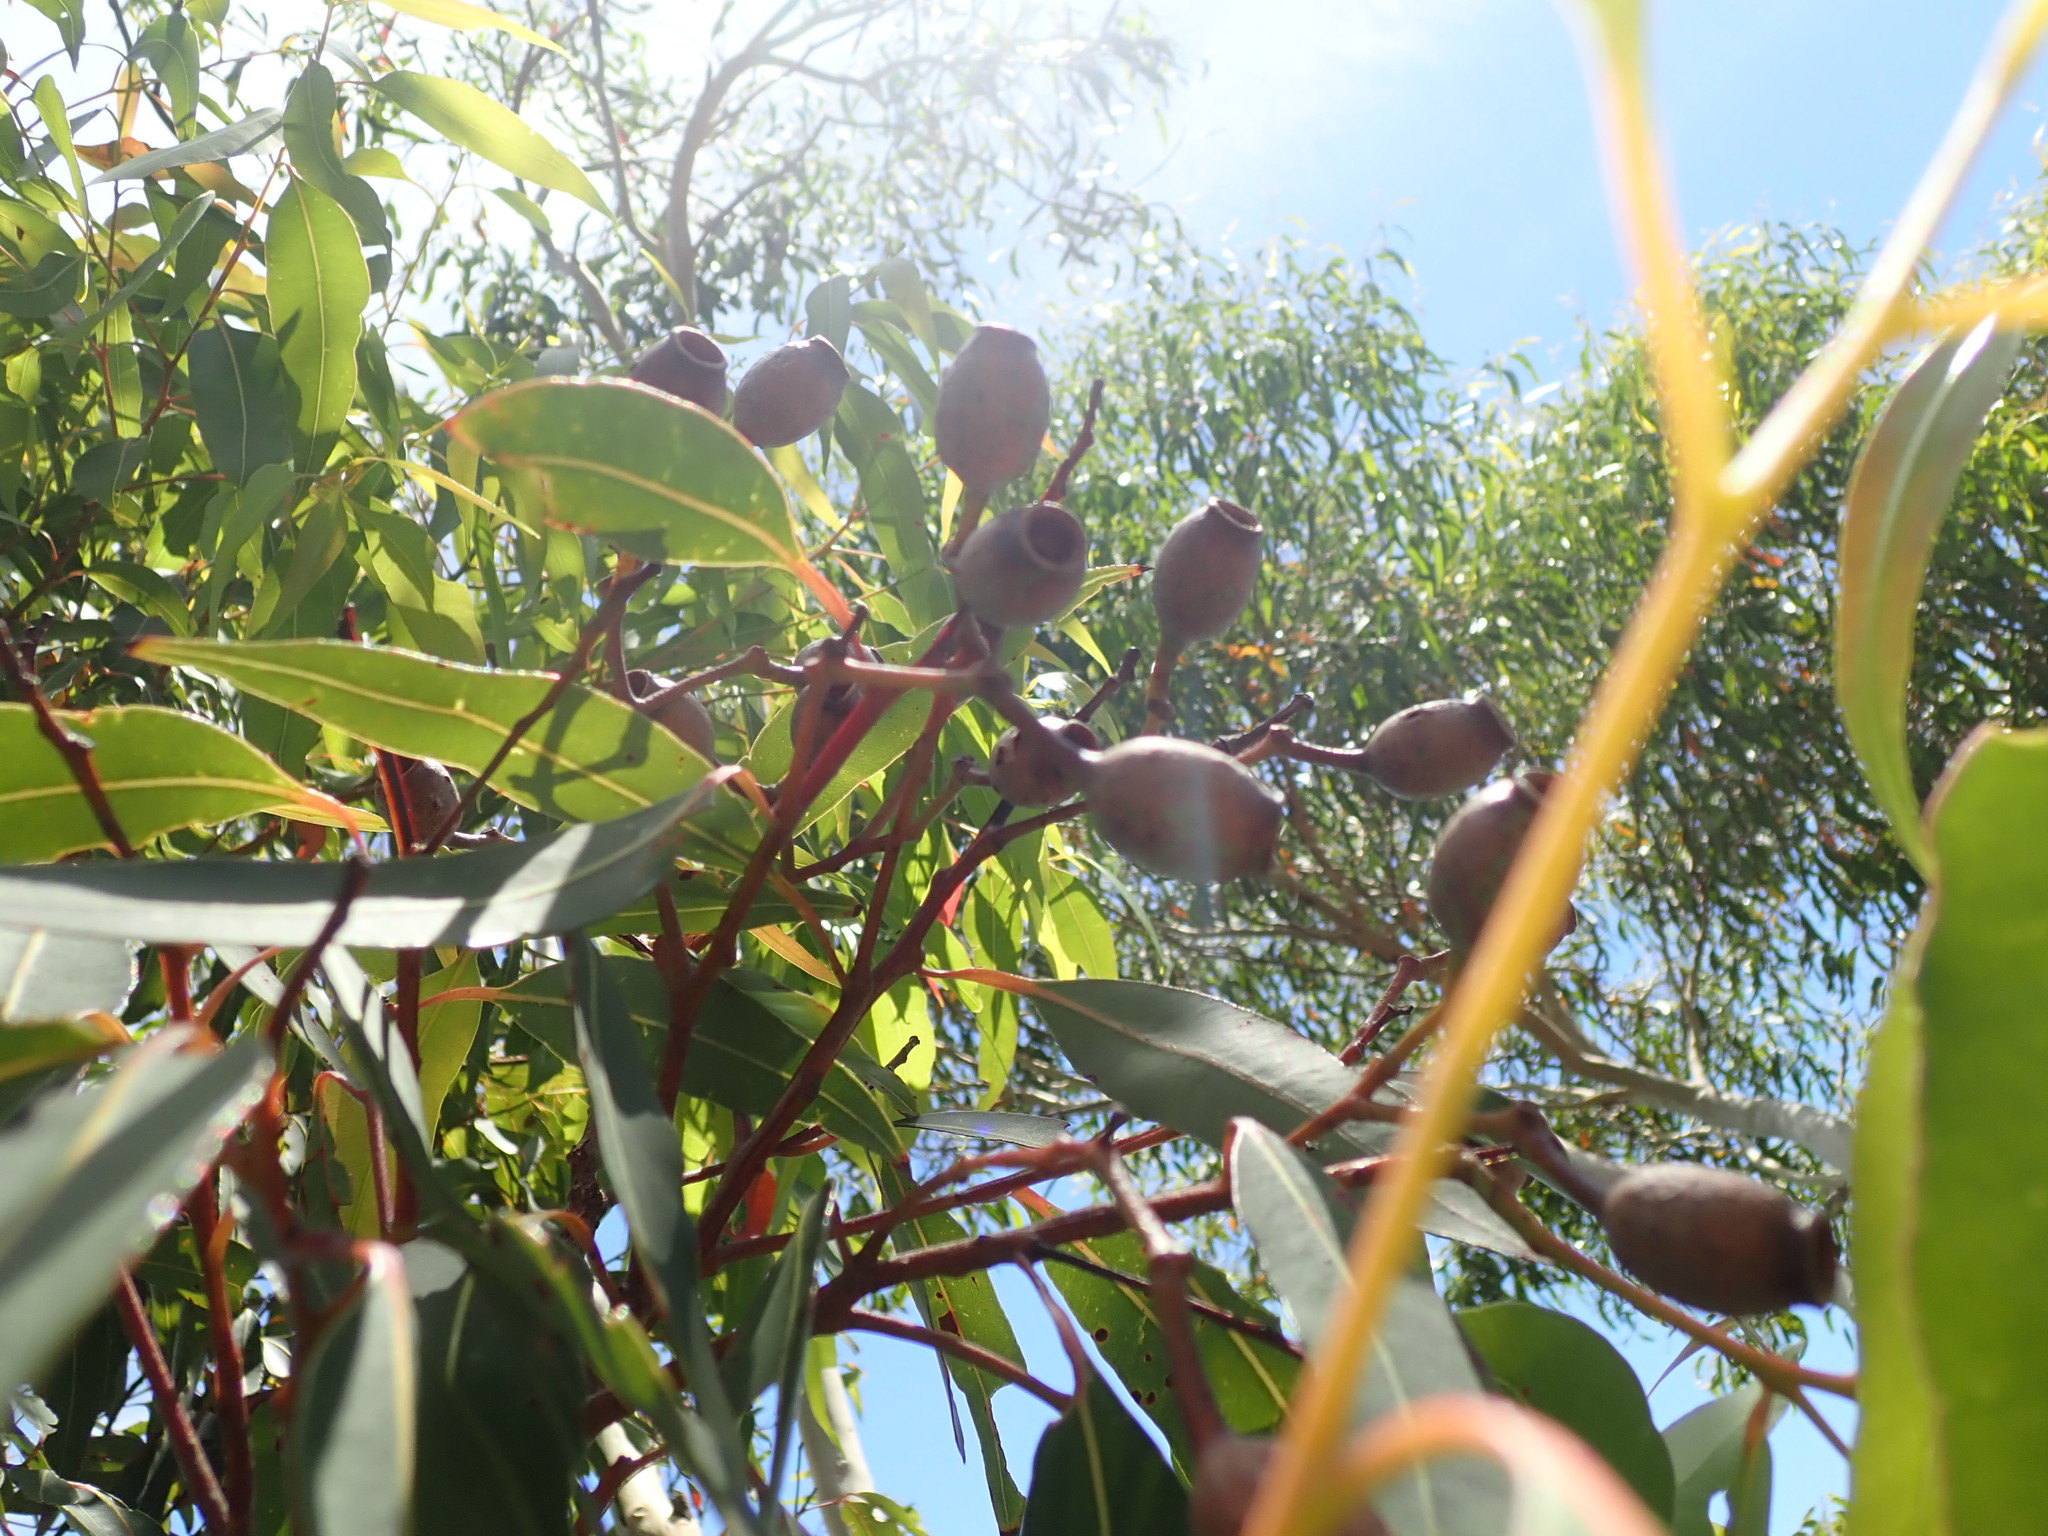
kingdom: Plantae
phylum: Tracheophyta
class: Magnoliopsida
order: Myrtales
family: Myrtaceae
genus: Corymbia
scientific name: Corymbia gummifera
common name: Red bloodwood
